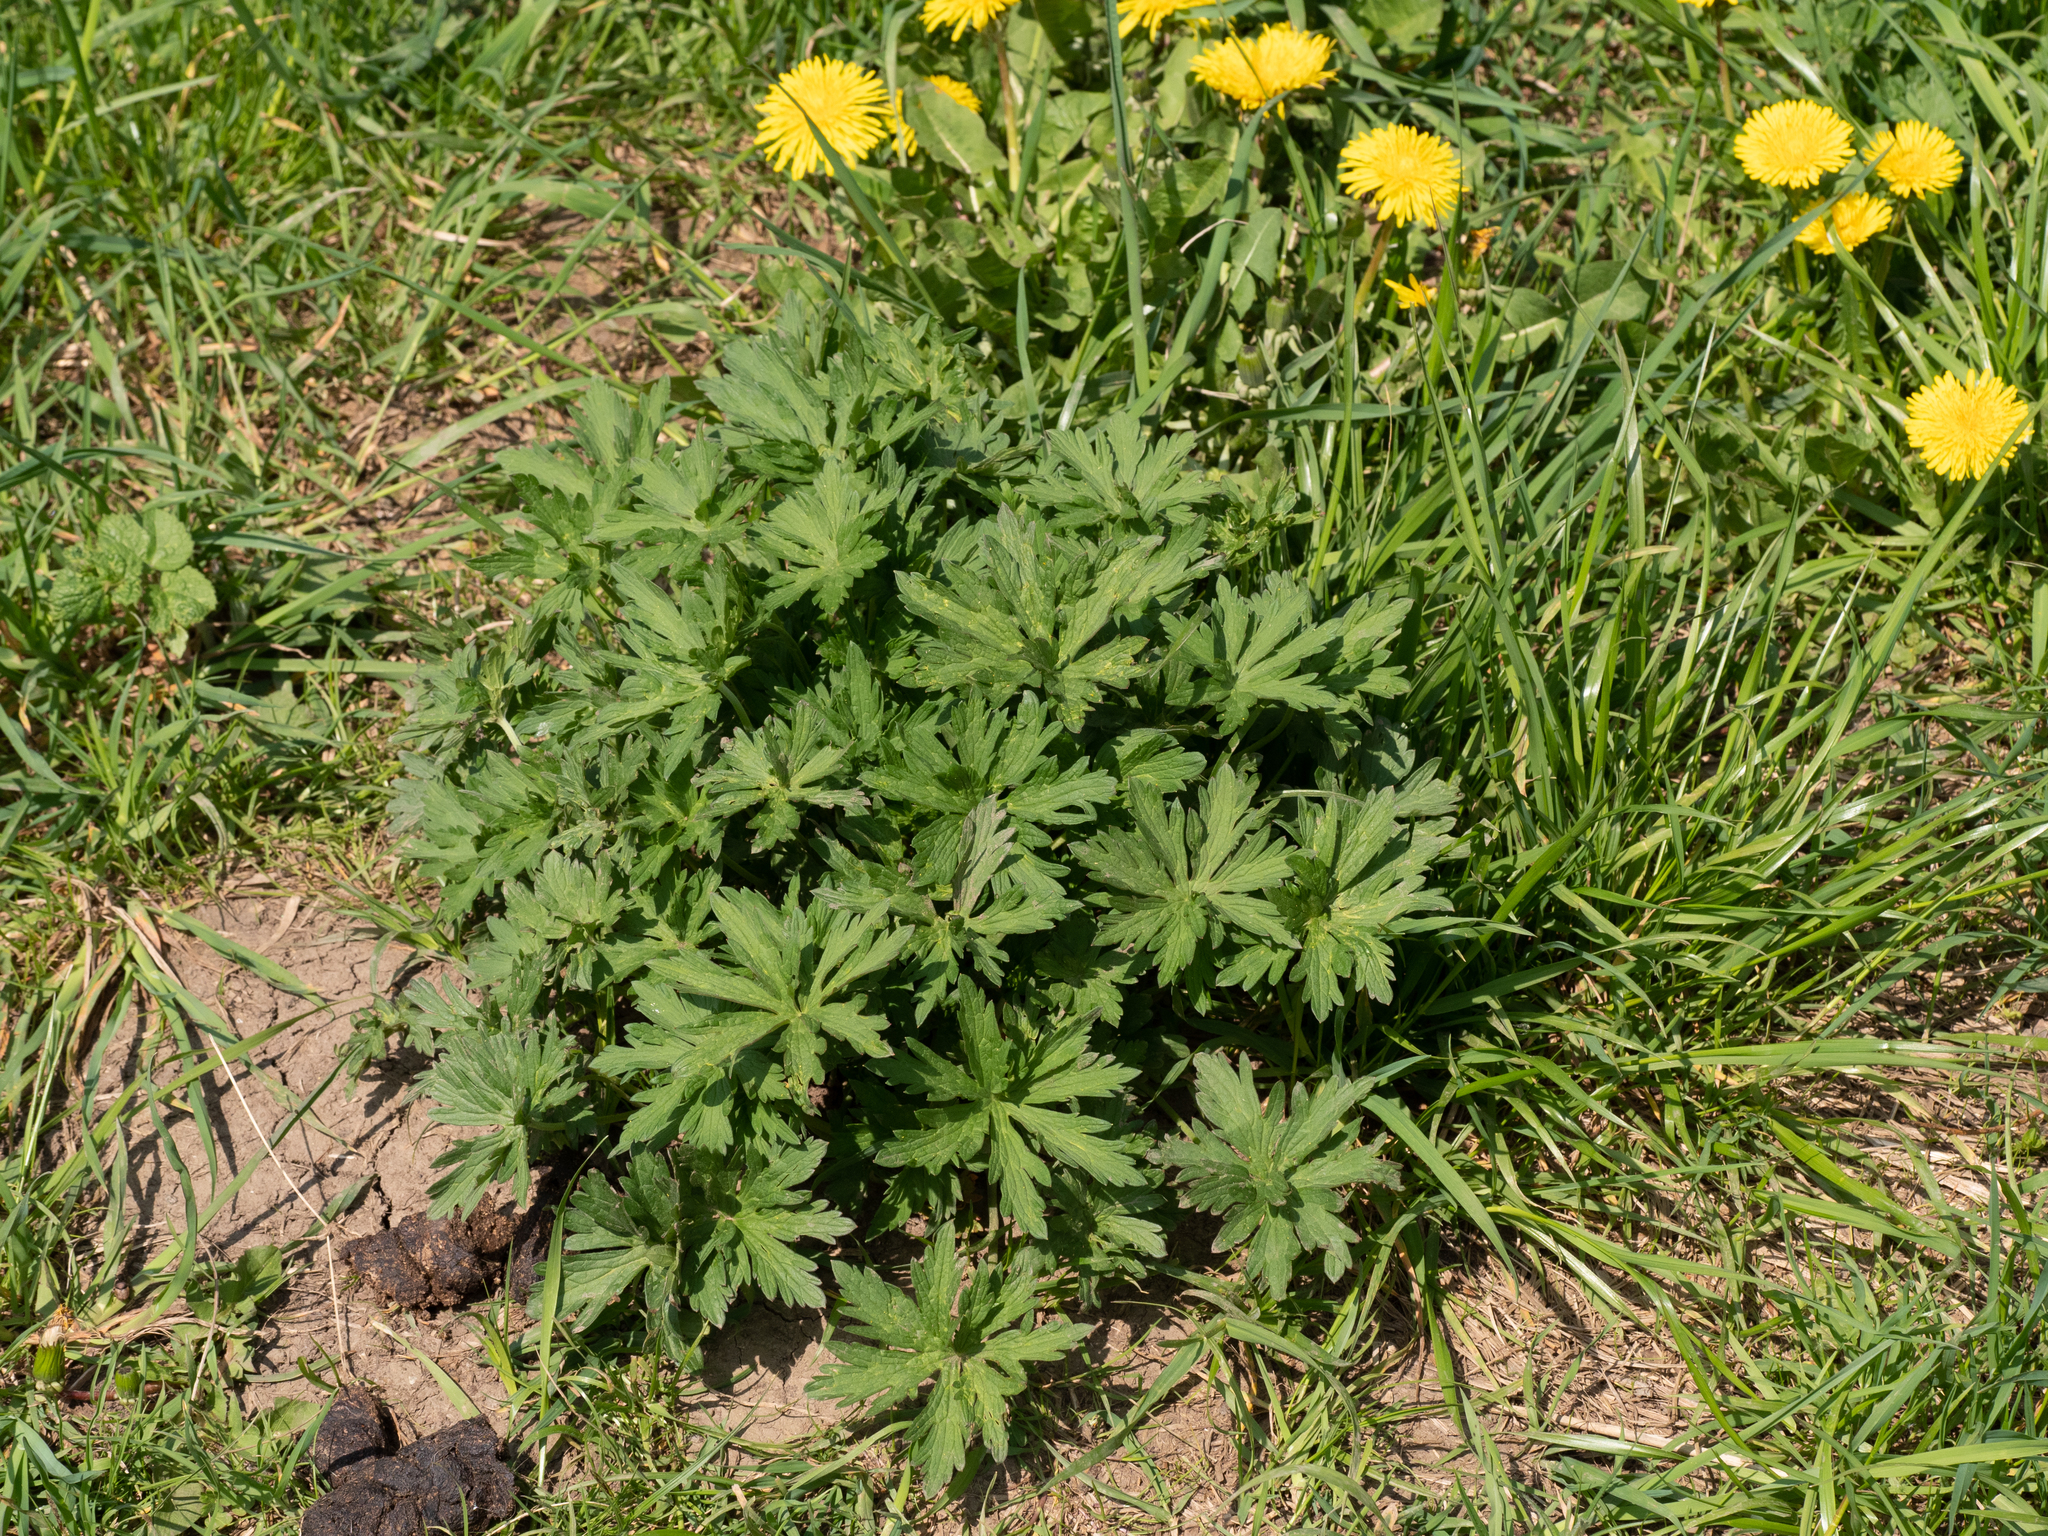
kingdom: Plantae
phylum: Tracheophyta
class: Magnoliopsida
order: Geraniales
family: Geraniaceae
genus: Geranium
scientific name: Geranium pratense
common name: Meadow crane's-bill
